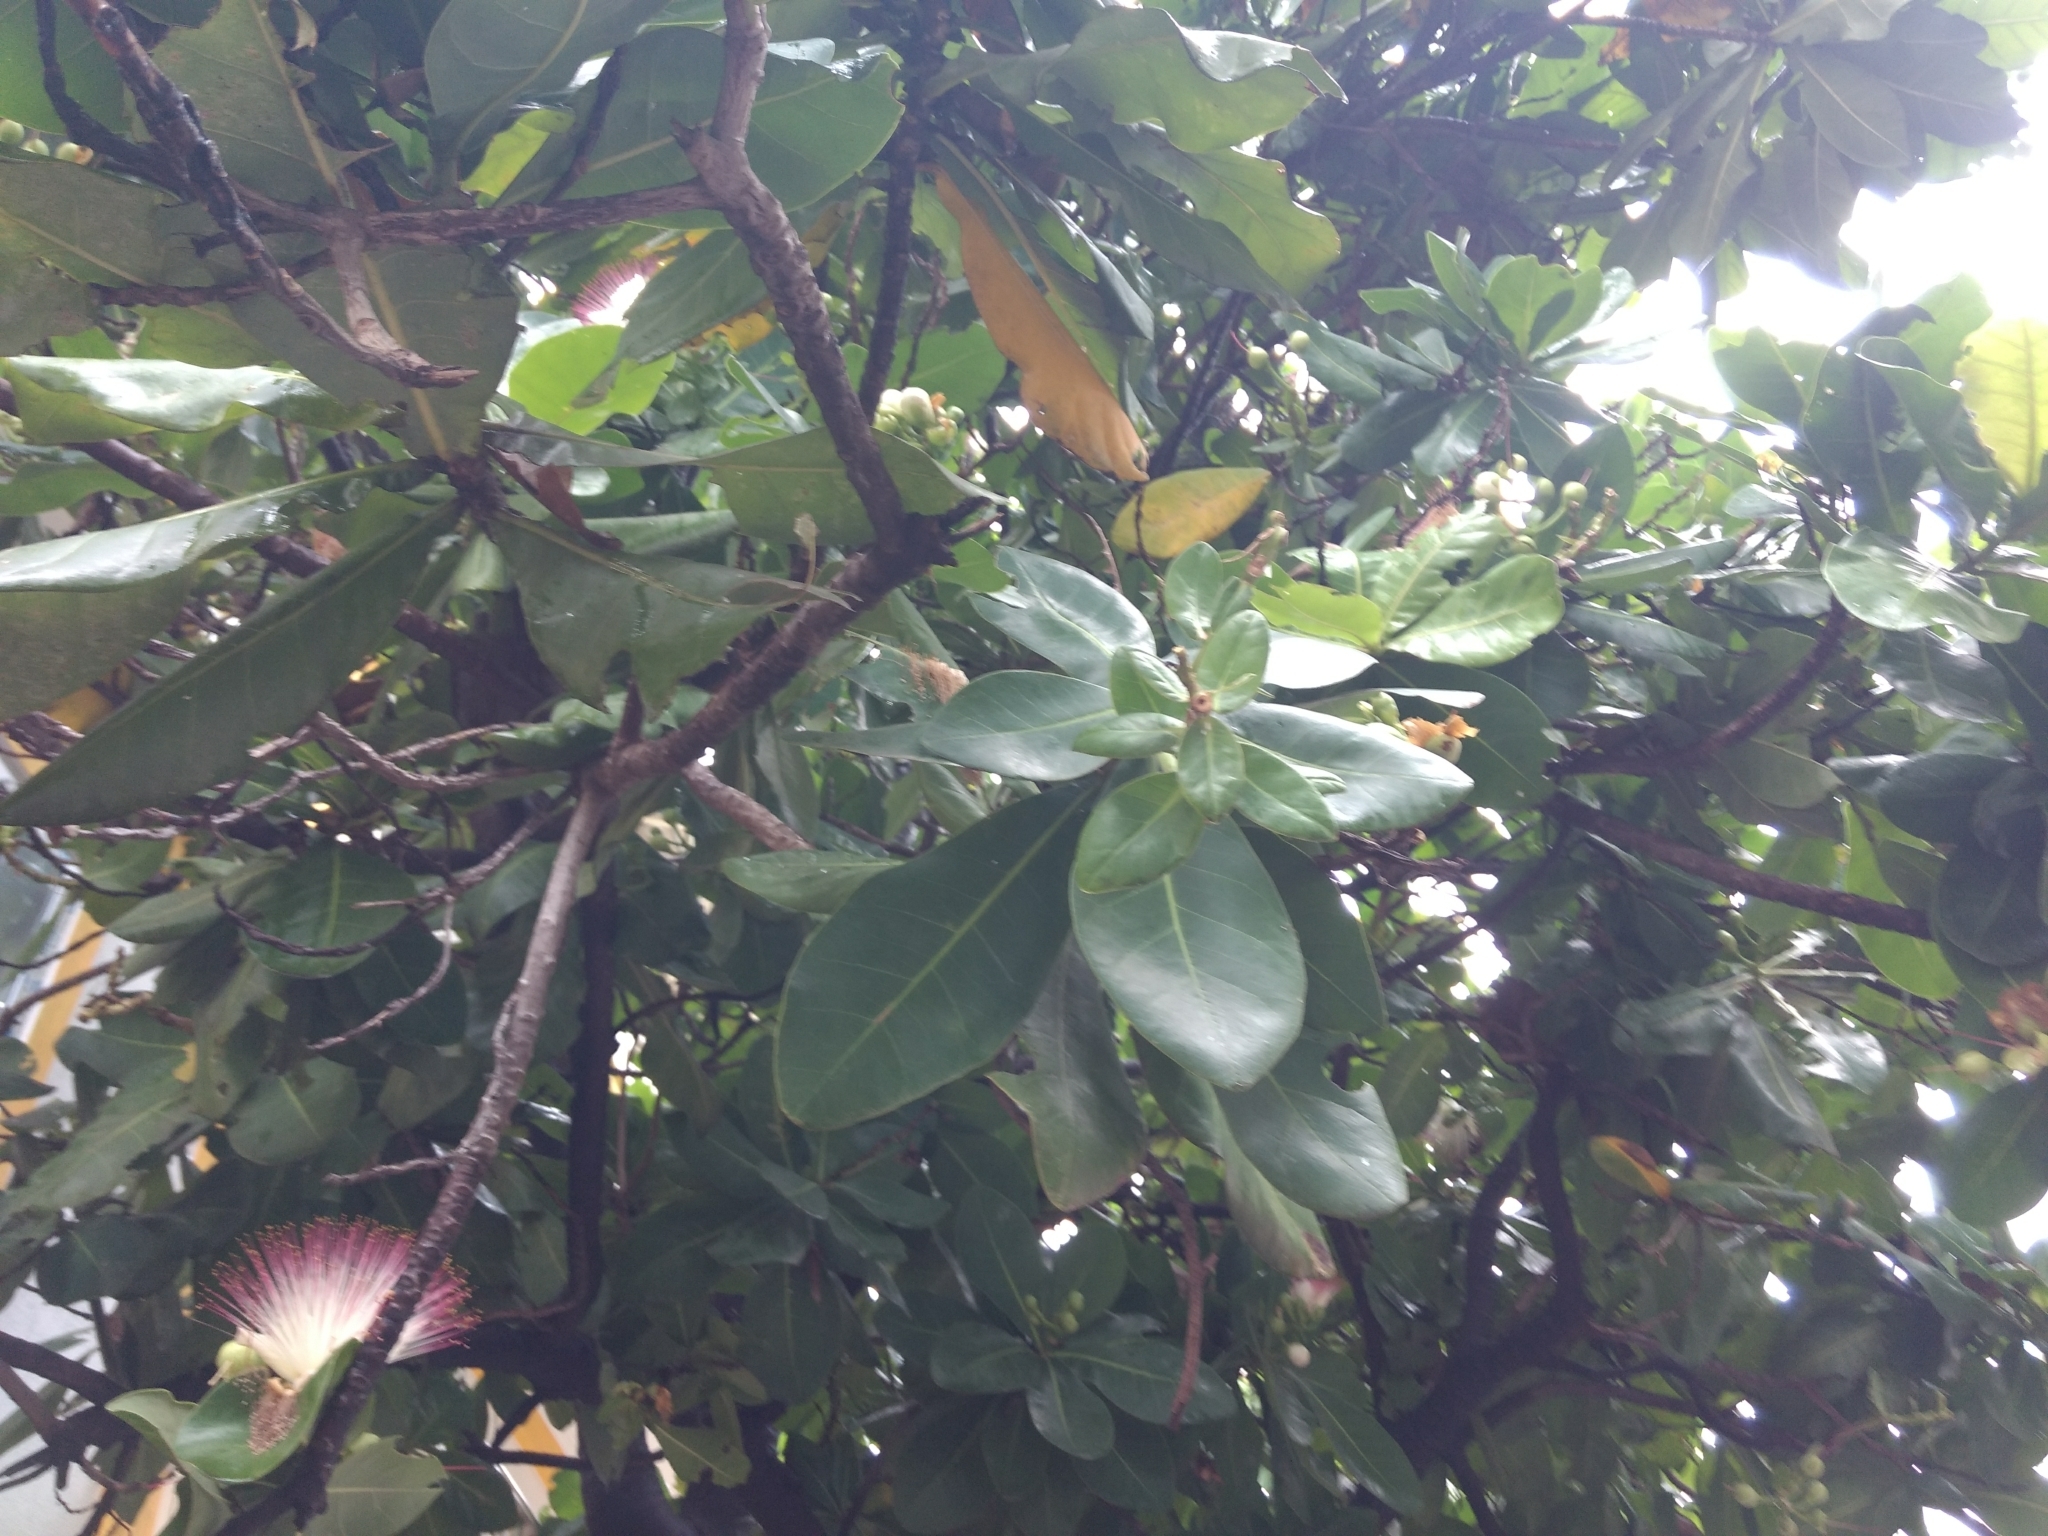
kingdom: Plantae
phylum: Tracheophyta
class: Magnoliopsida
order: Ericales
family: Lecythidaceae
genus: Barringtonia
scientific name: Barringtonia asiatica
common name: Mango-pine
